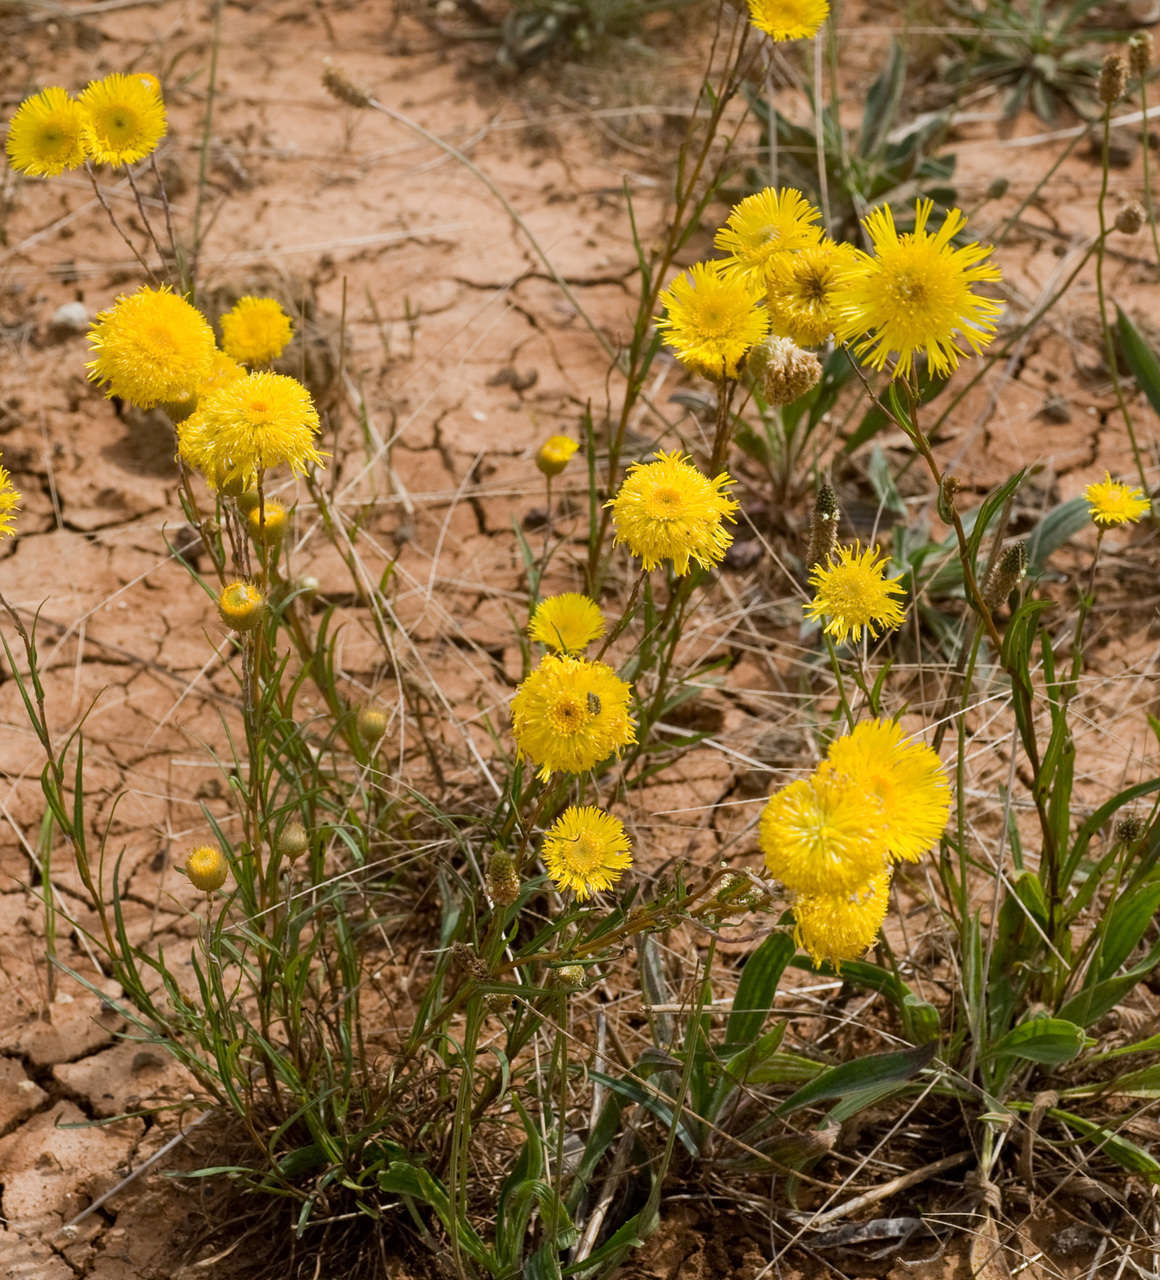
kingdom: Plantae
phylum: Tracheophyta
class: Magnoliopsida
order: Asterales
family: Asteraceae
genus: Podolepis
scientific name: Podolepis jaceoides
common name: Showy copper-wired daisy
